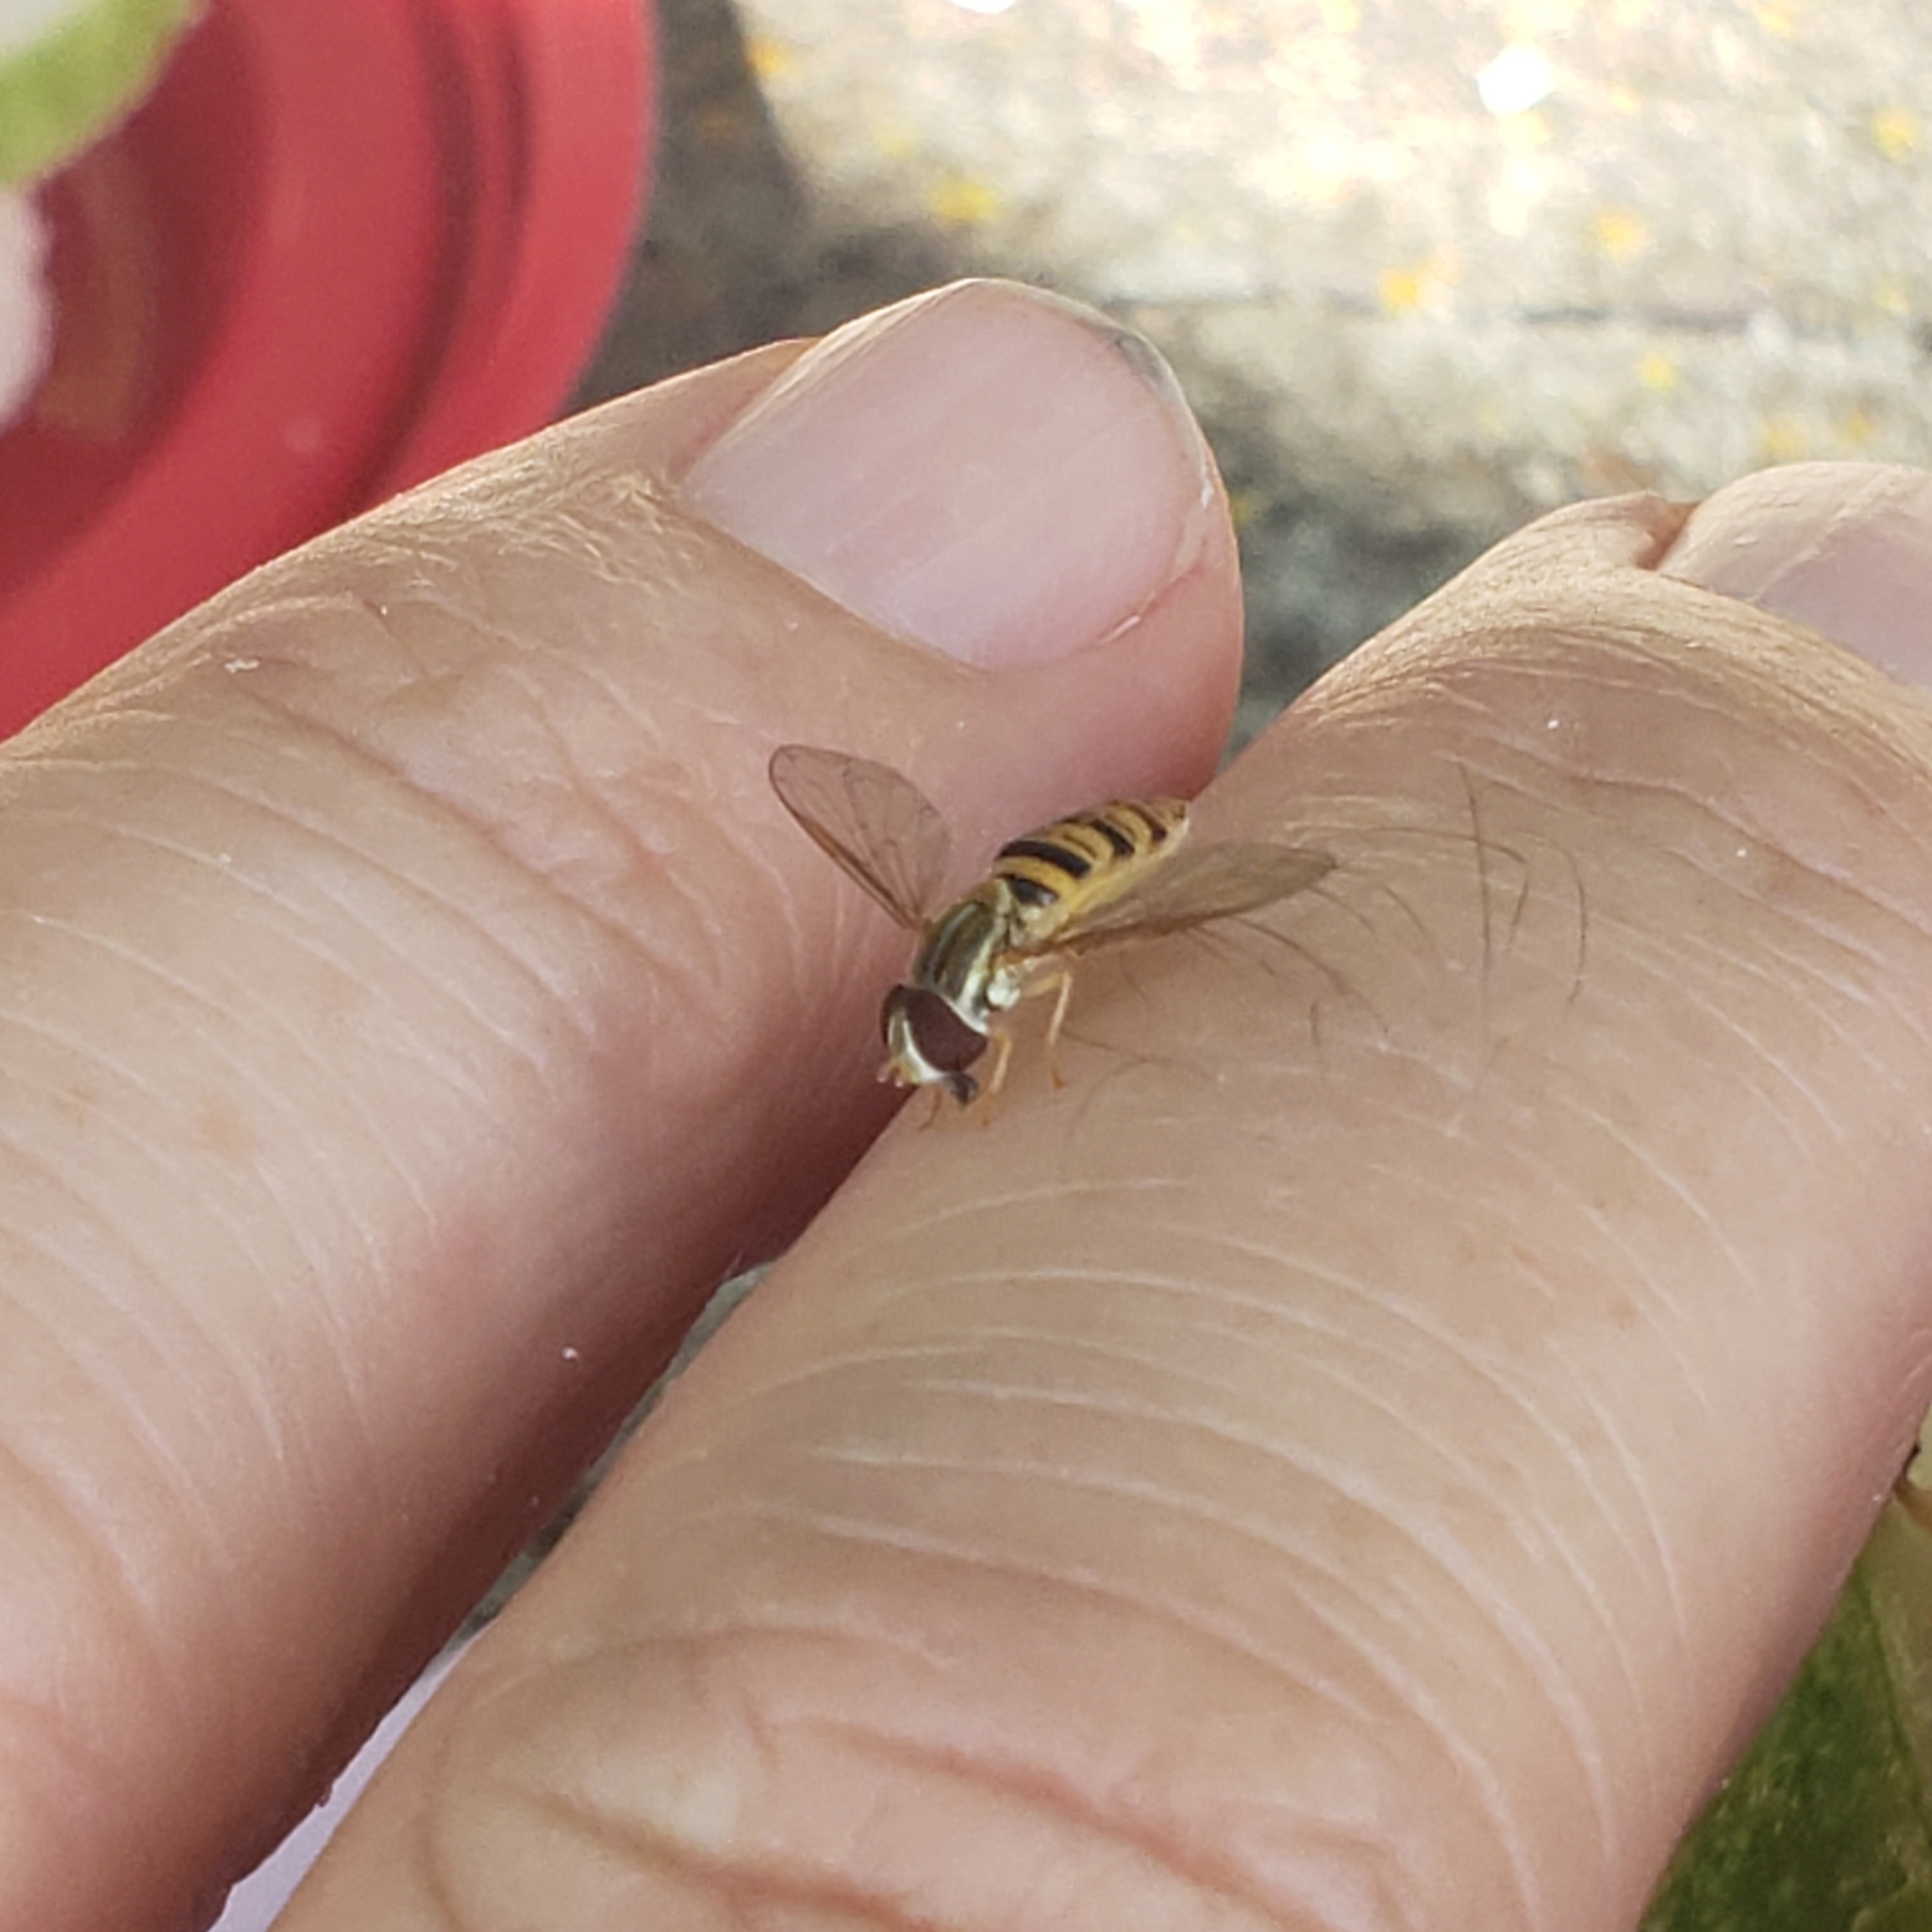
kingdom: Animalia
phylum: Arthropoda
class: Insecta
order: Diptera
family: Syrphidae
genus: Toxomerus
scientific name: Toxomerus politus
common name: Maize calligrapher
